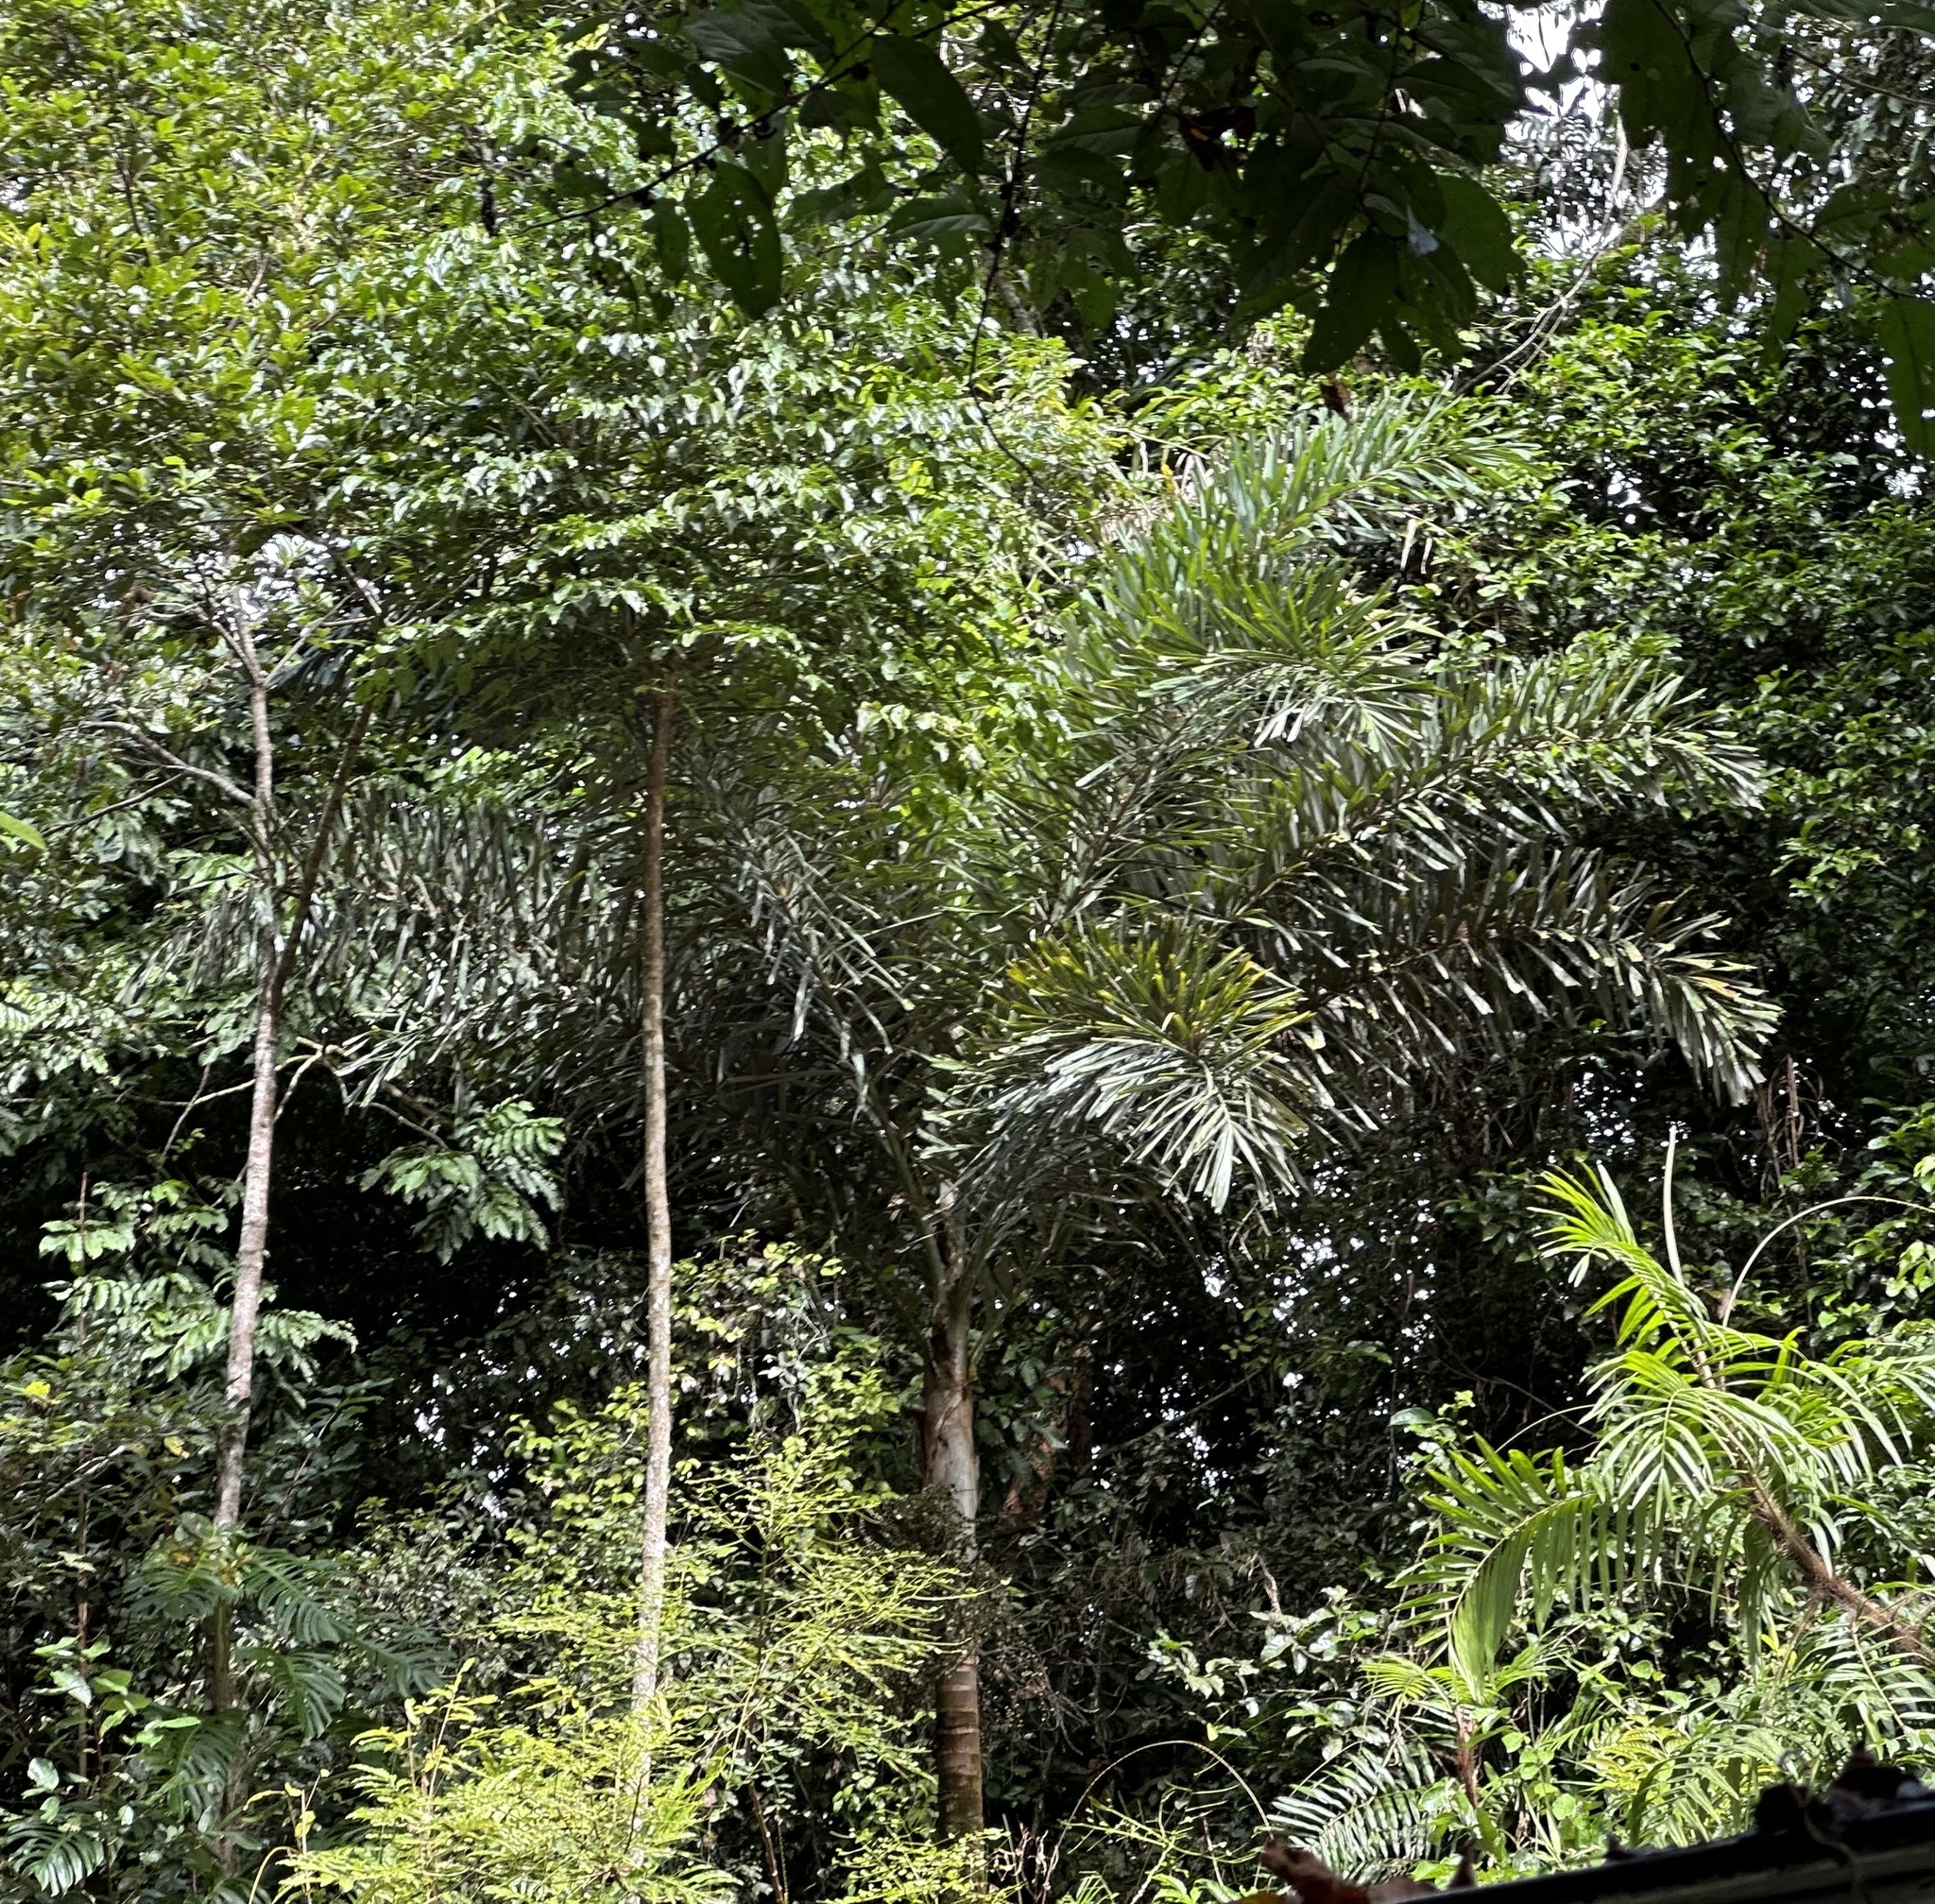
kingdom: Plantae
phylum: Tracheophyta
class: Liliopsida
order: Arecales
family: Arecaceae
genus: Normanbya
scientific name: Normanbya normanbyi
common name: Black palm
